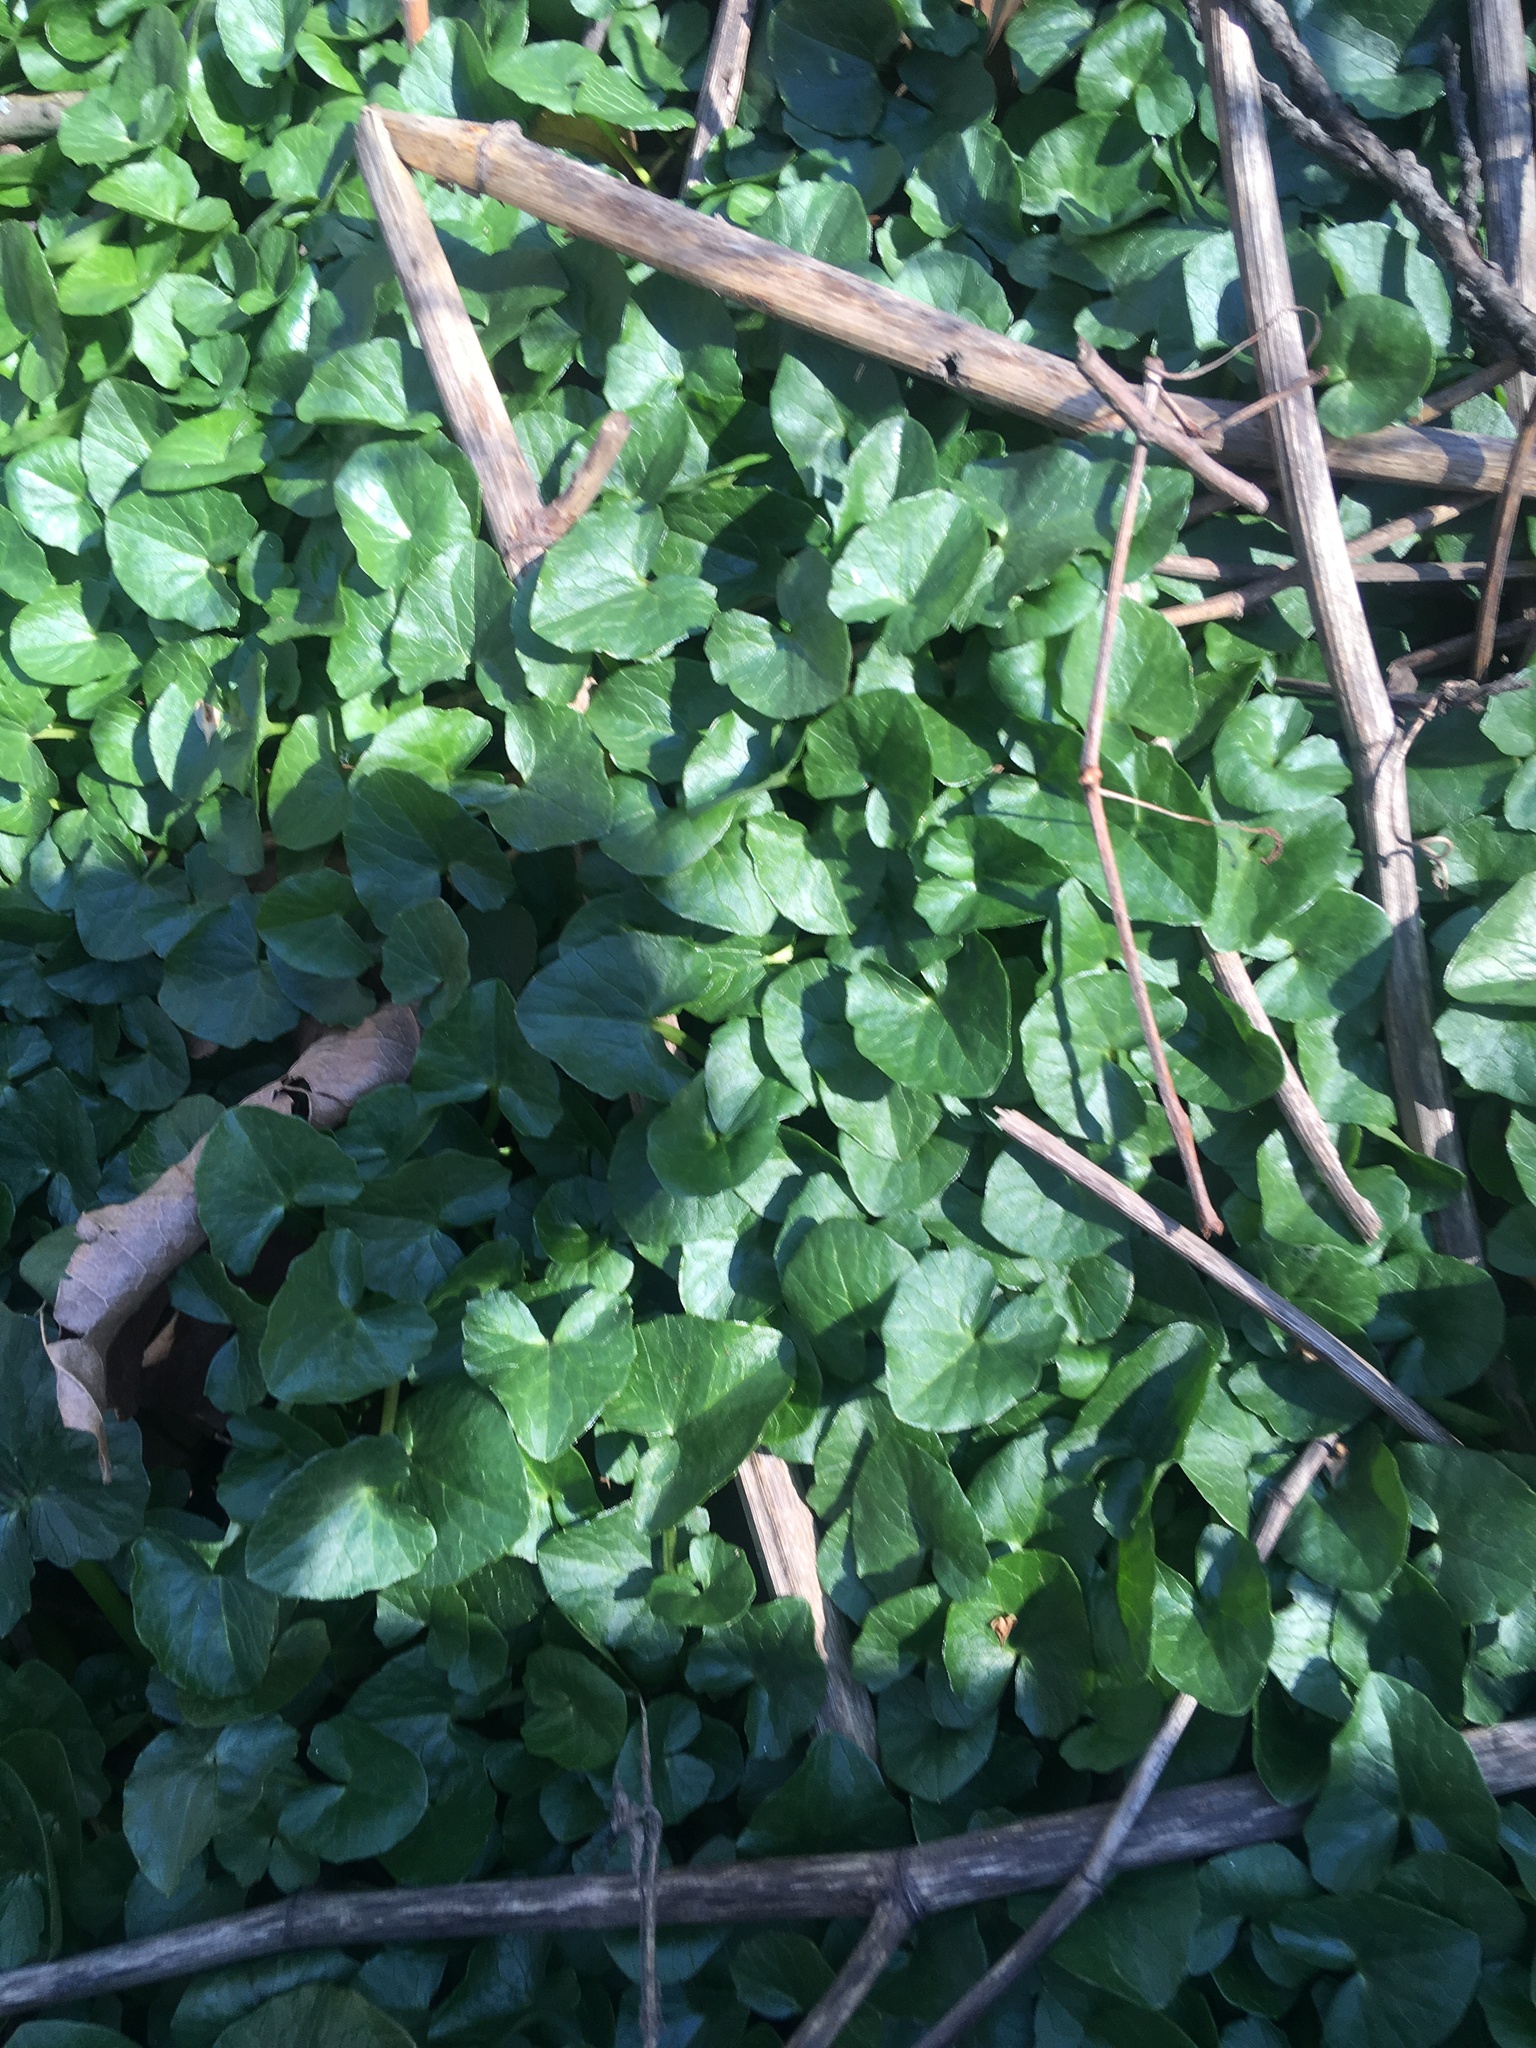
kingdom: Plantae
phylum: Tracheophyta
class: Magnoliopsida
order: Ranunculales
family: Ranunculaceae
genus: Ficaria
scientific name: Ficaria verna
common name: Lesser celandine
